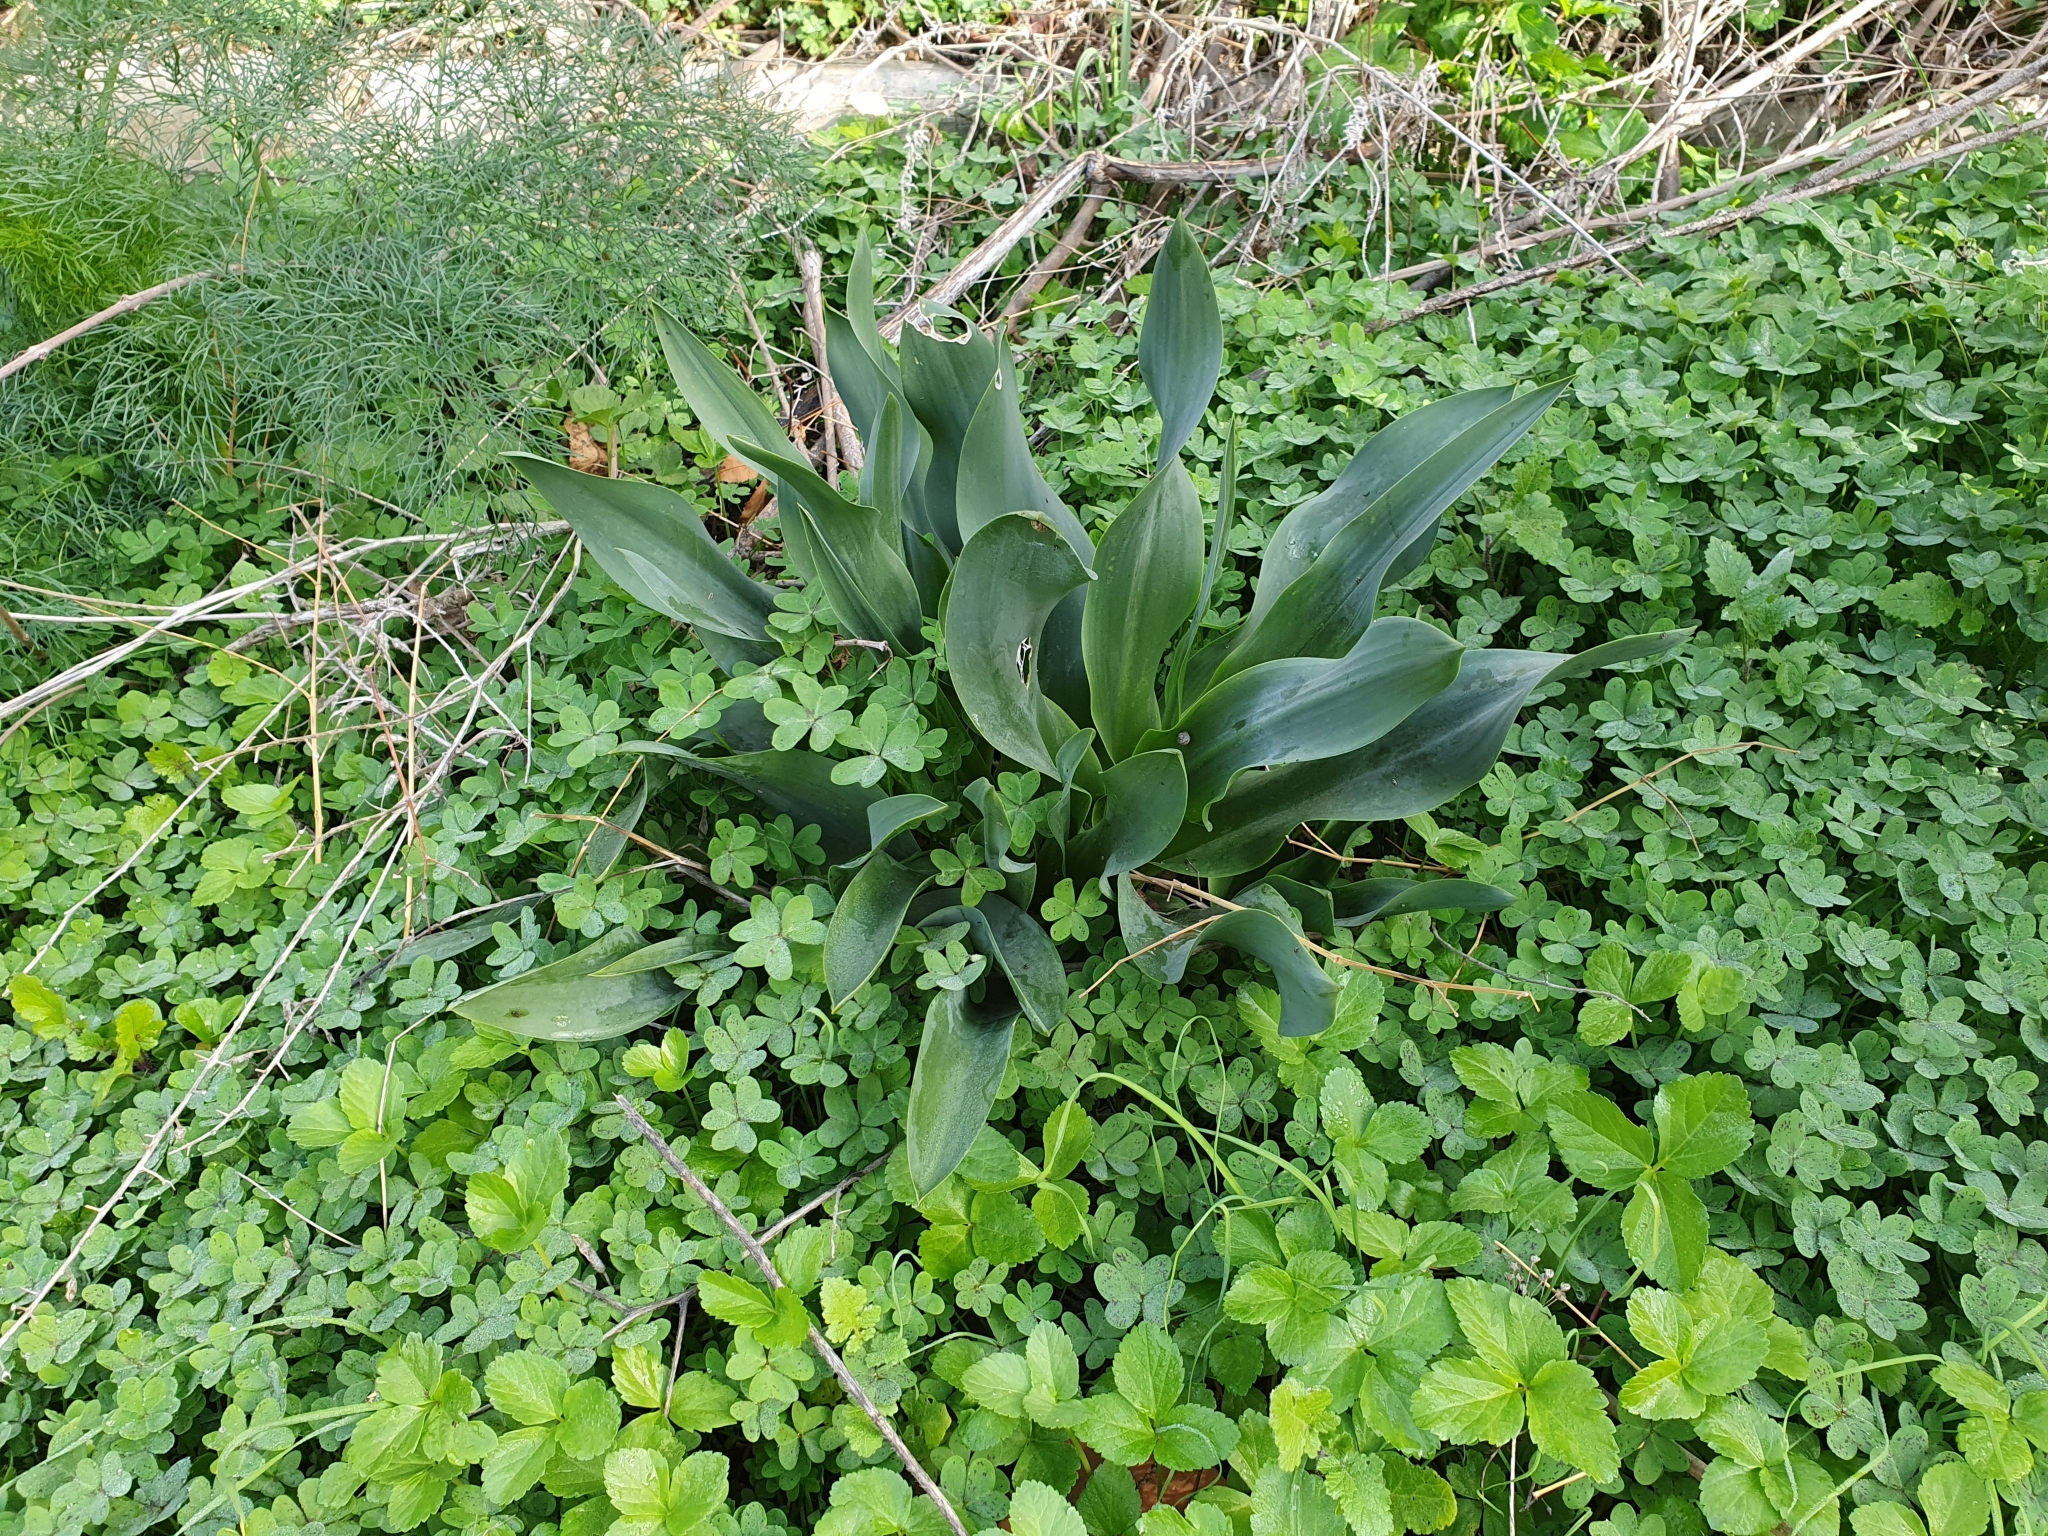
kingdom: Plantae
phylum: Tracheophyta
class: Liliopsida
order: Asparagales
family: Asparagaceae
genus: Drimia
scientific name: Drimia numidica
